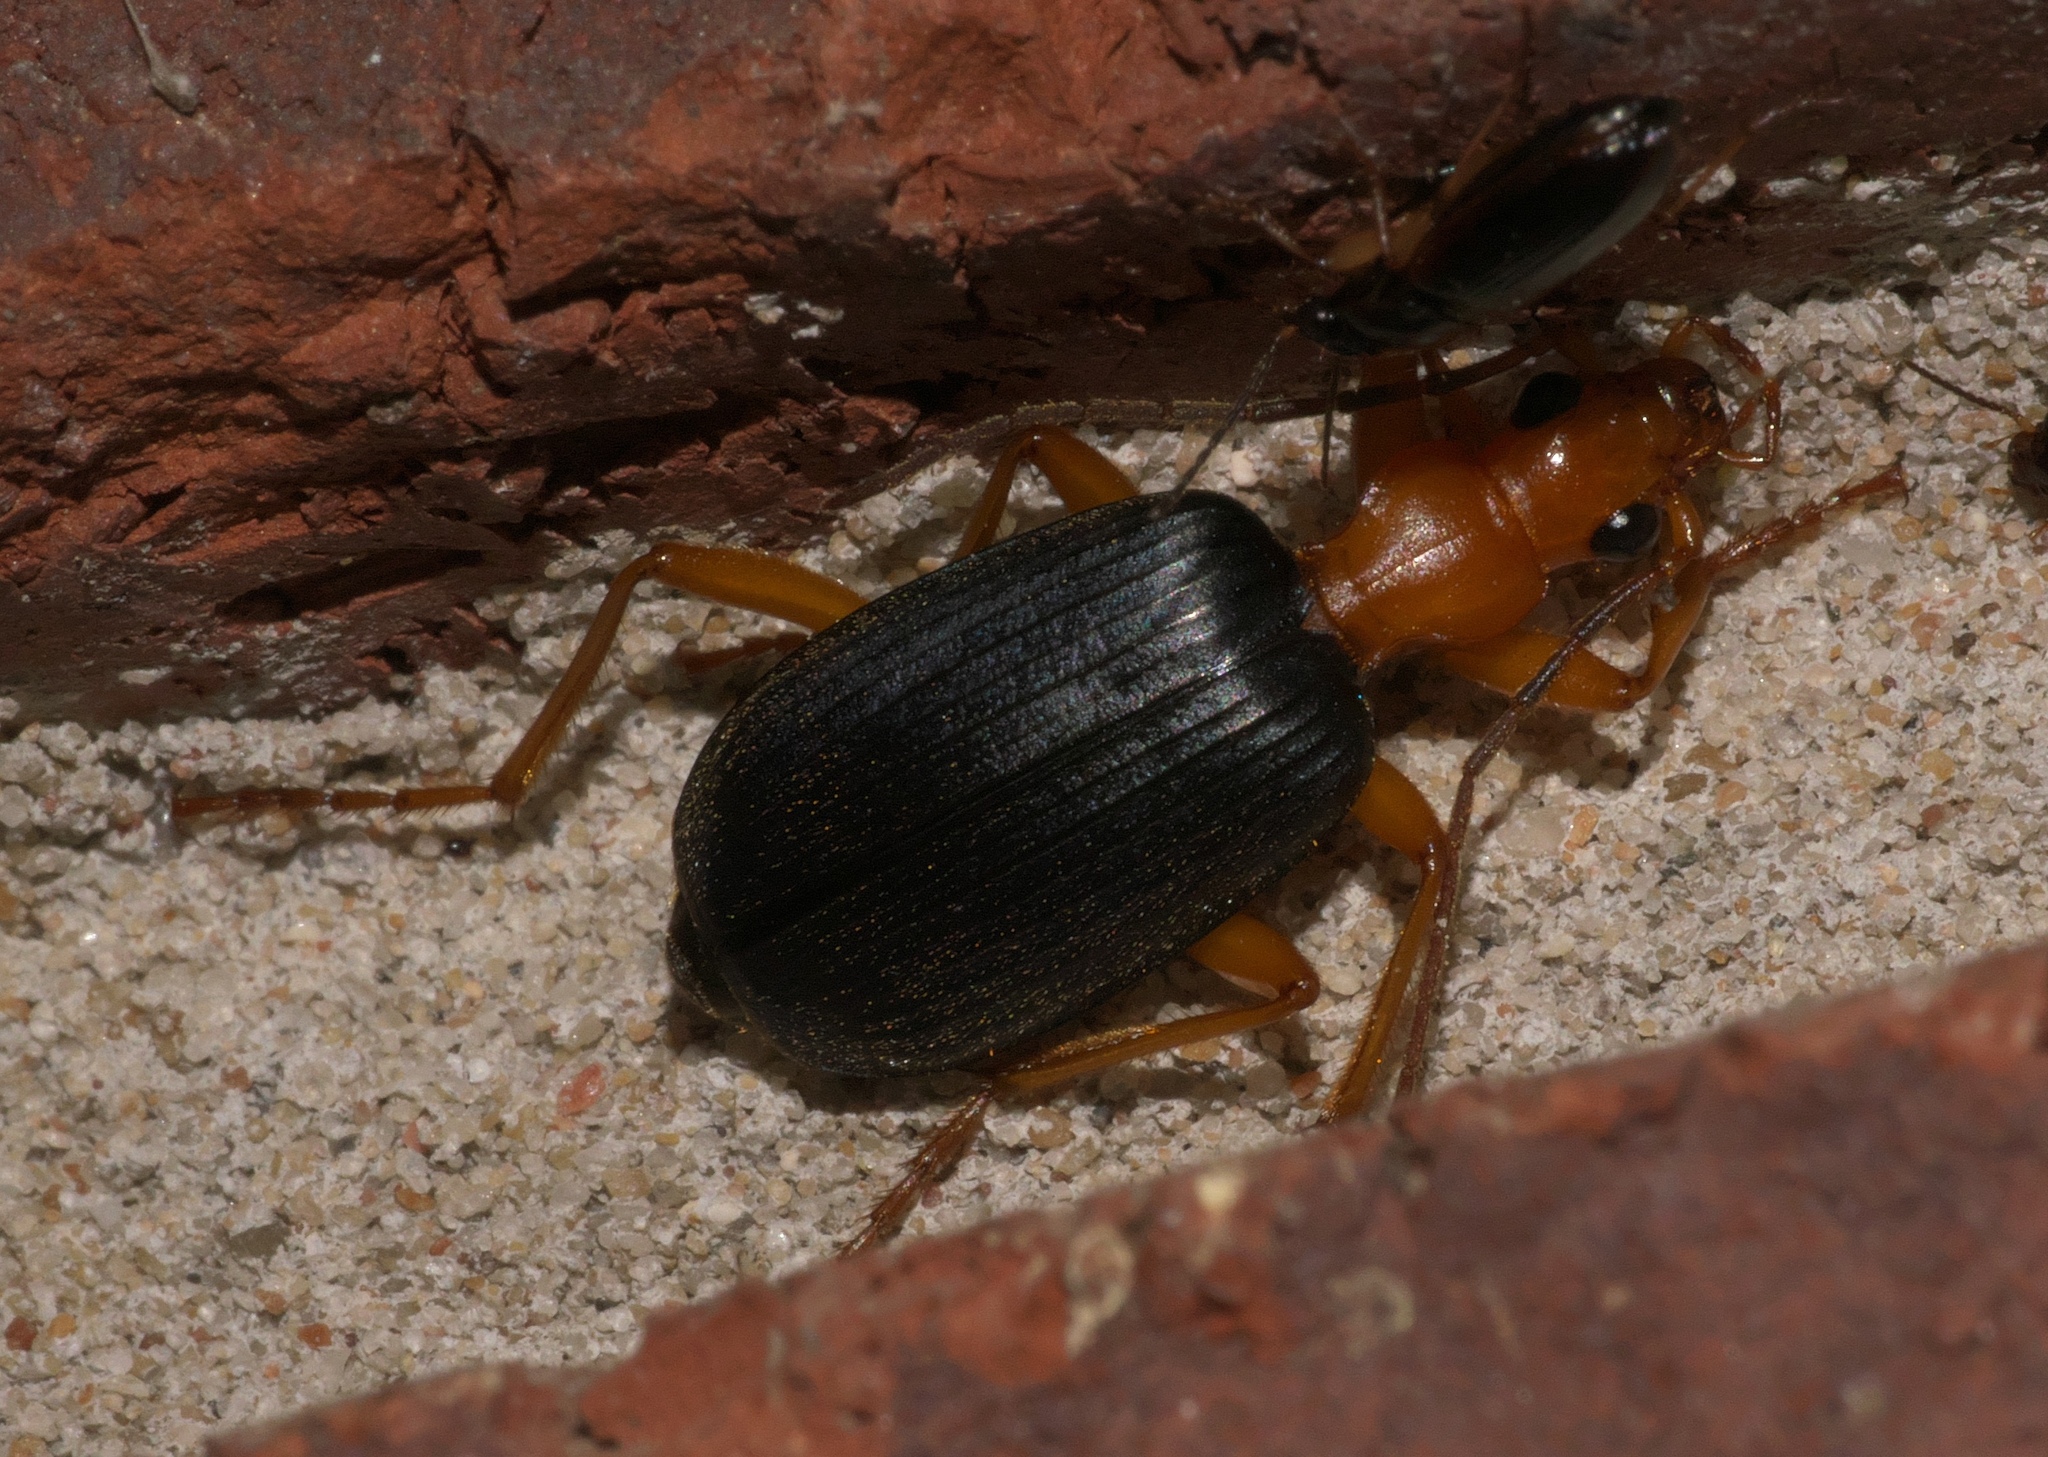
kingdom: Animalia
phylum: Arthropoda
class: Insecta
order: Coleoptera
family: Carabidae
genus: Brachinus
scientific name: Brachinus
